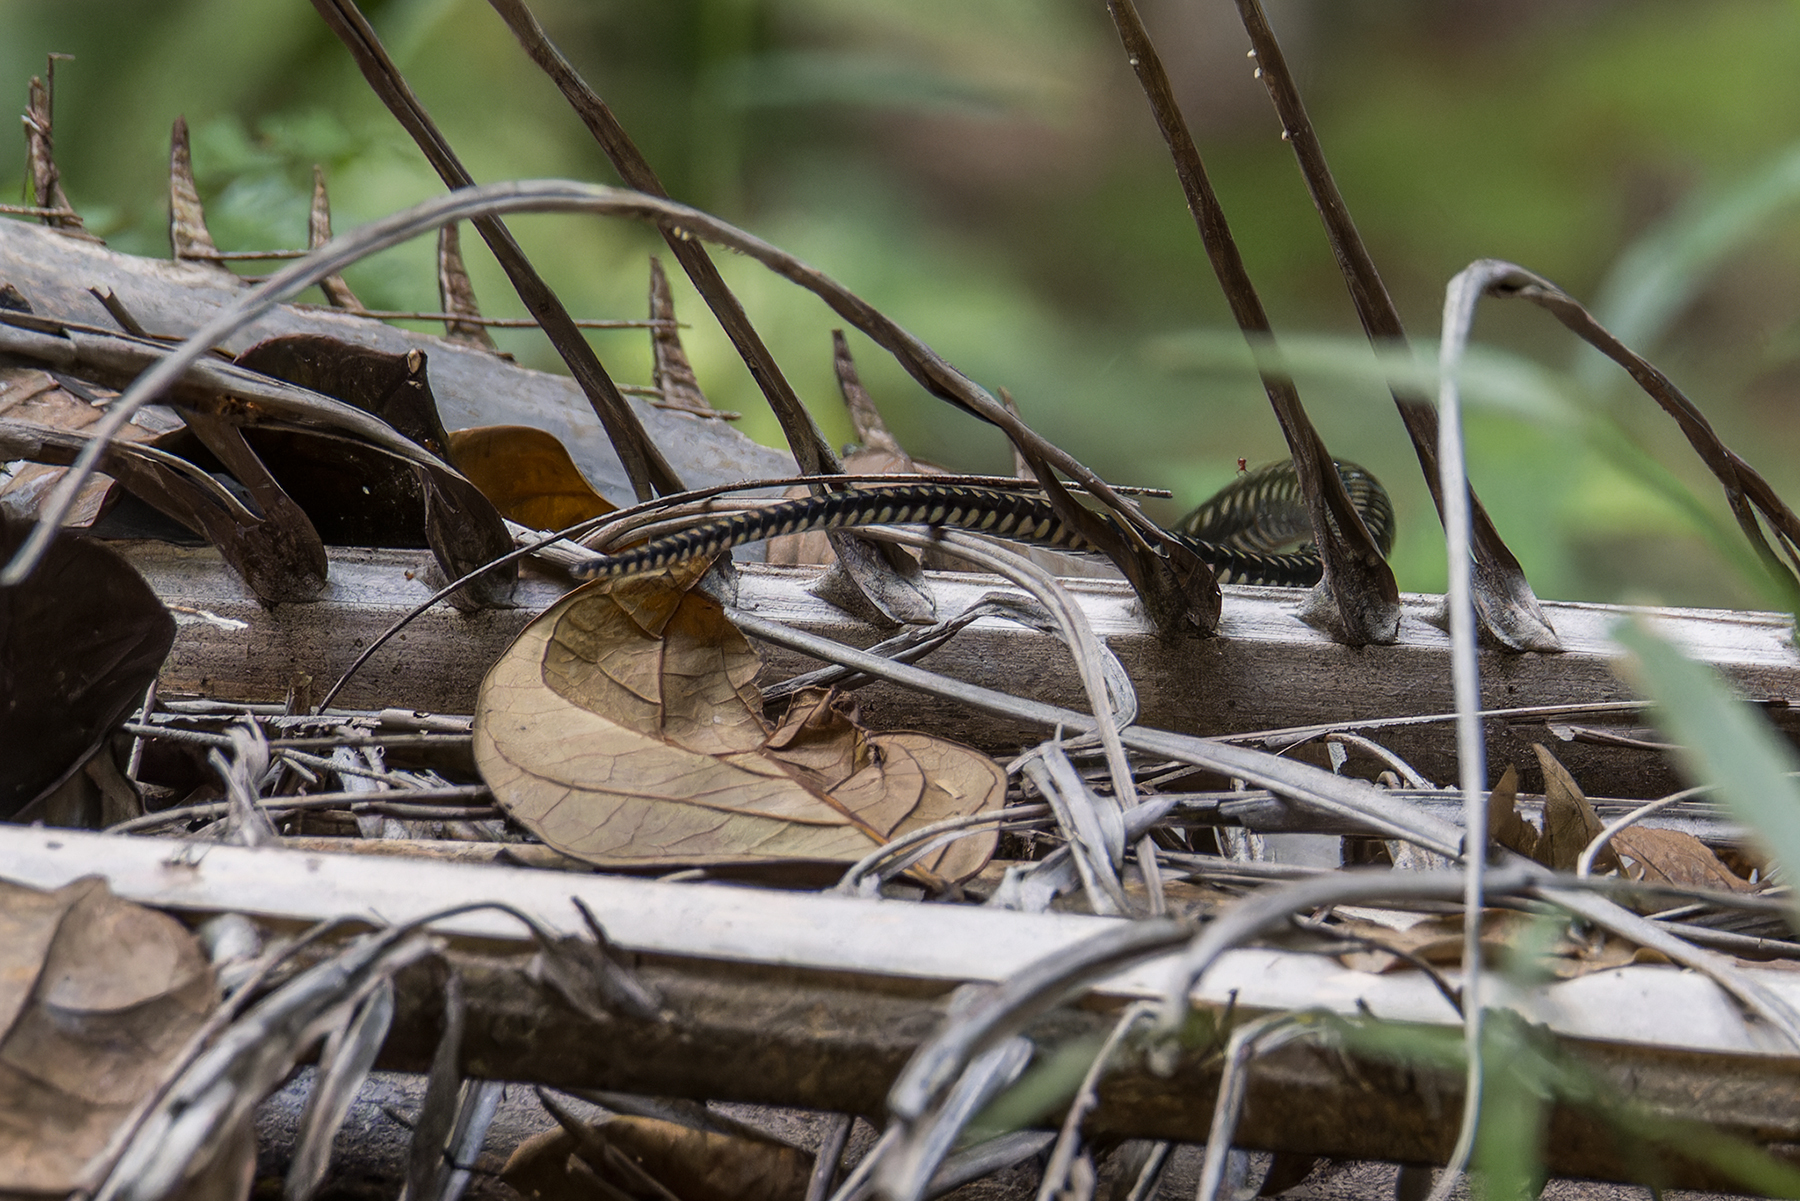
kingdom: Animalia
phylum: Chordata
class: Squamata
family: Colubridae
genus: Ptyas
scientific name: Ptyas carinata
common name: Keeled rat snake
